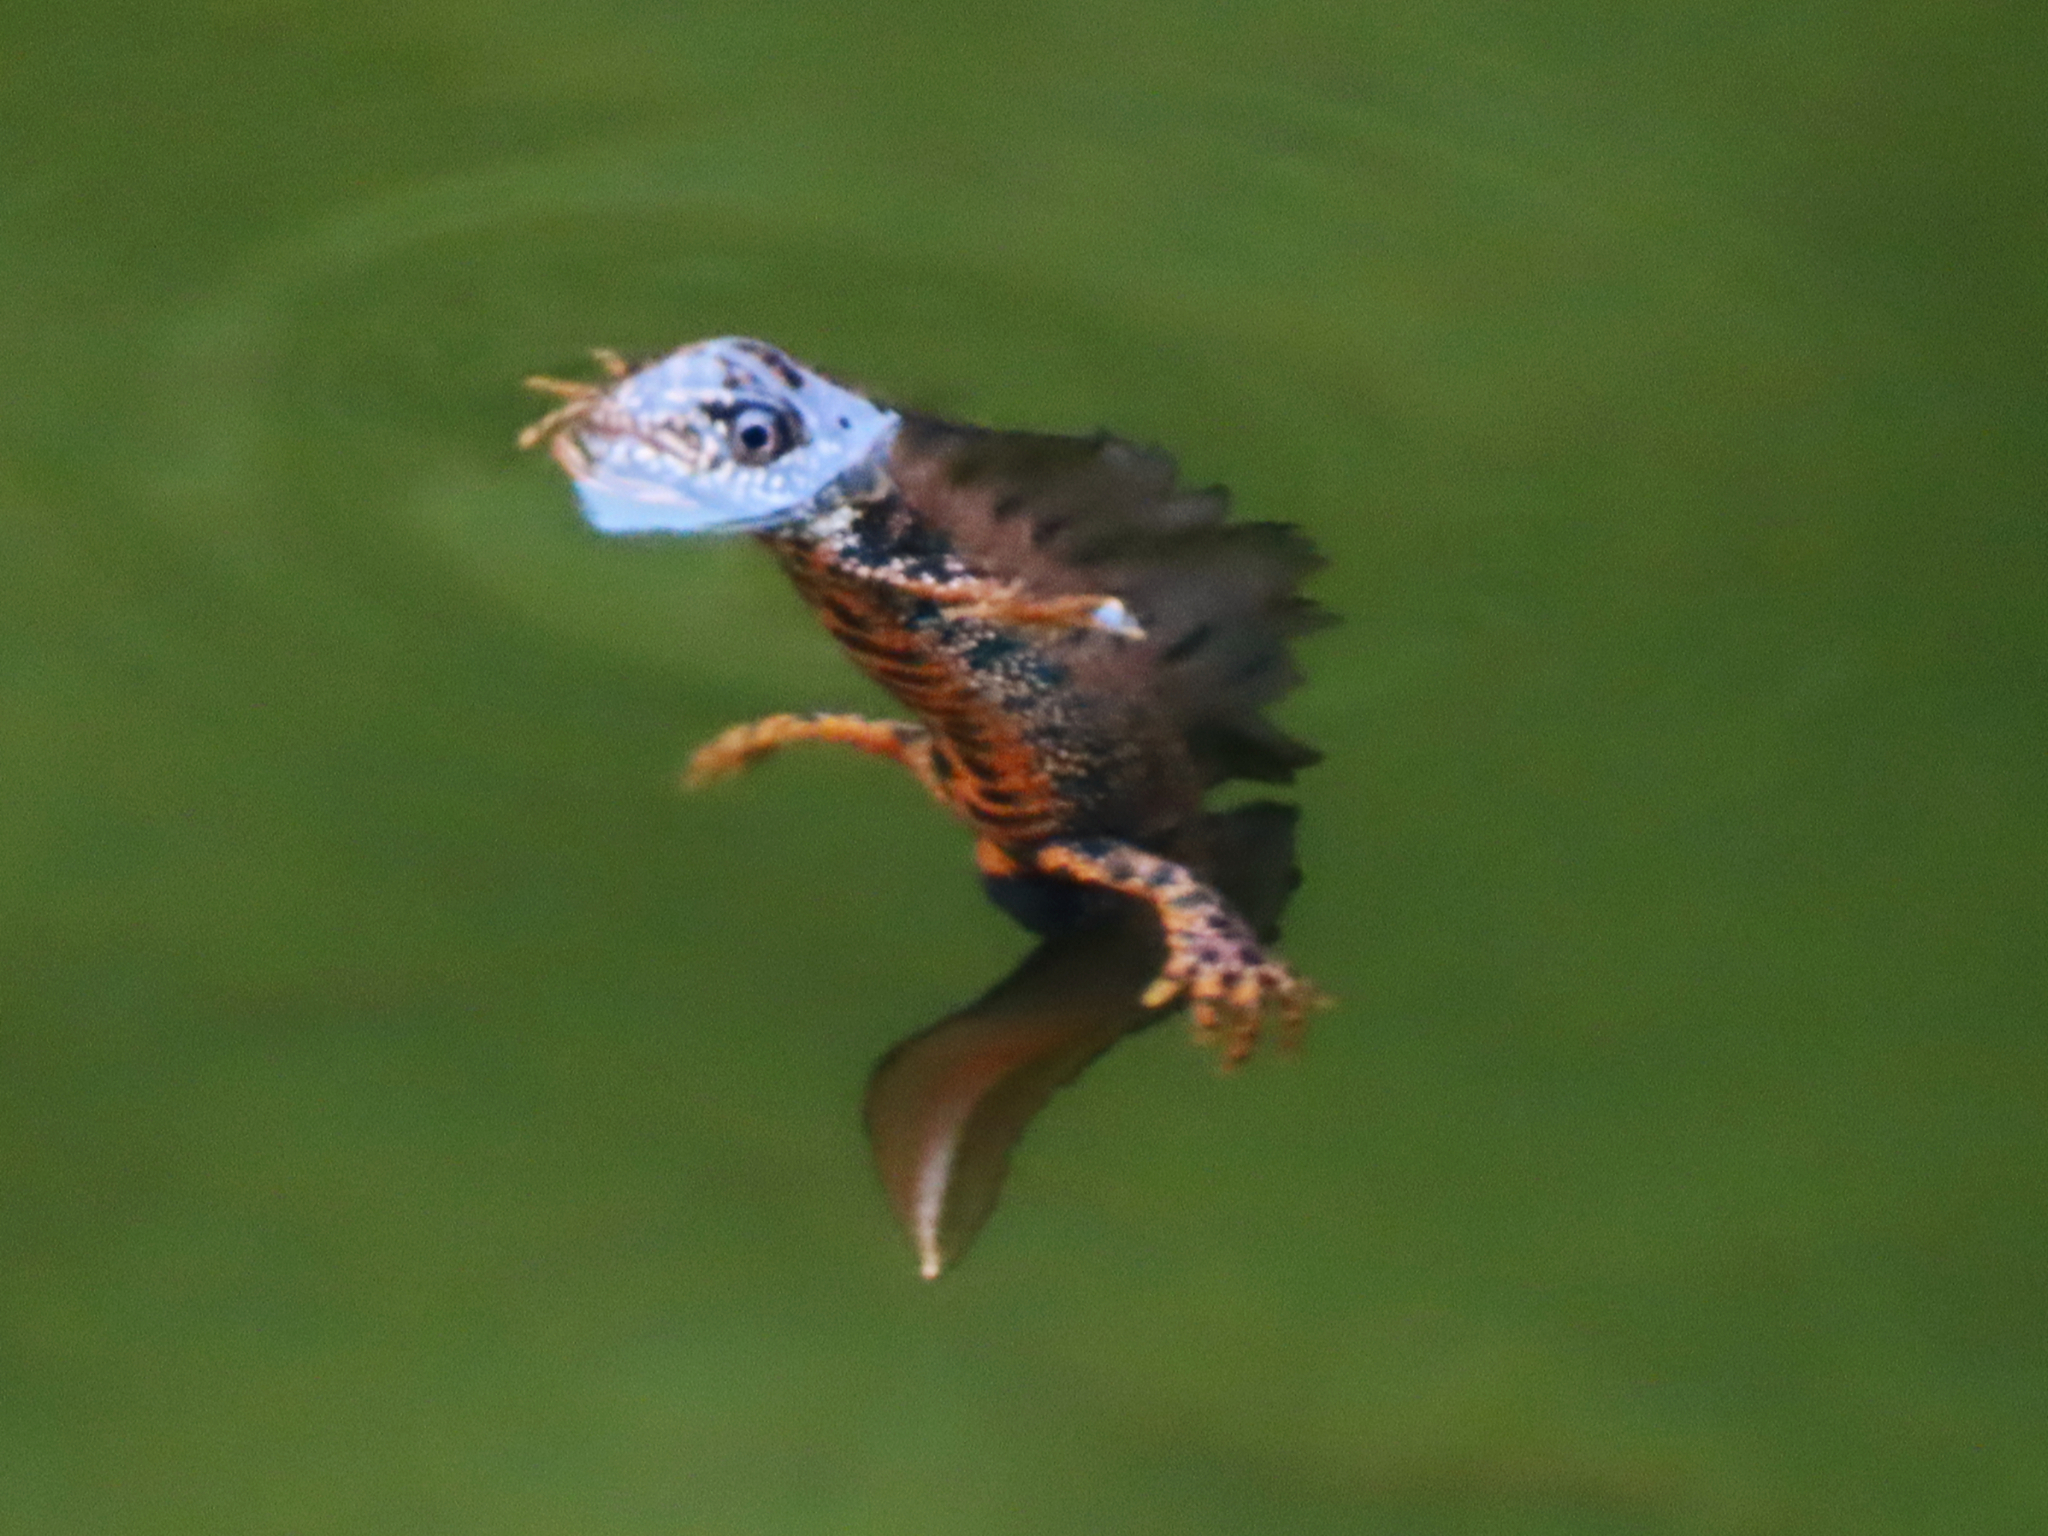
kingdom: Animalia
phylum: Chordata
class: Amphibia
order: Caudata
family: Salamandridae
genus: Triturus
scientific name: Triturus cristatus
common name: Crested newt
